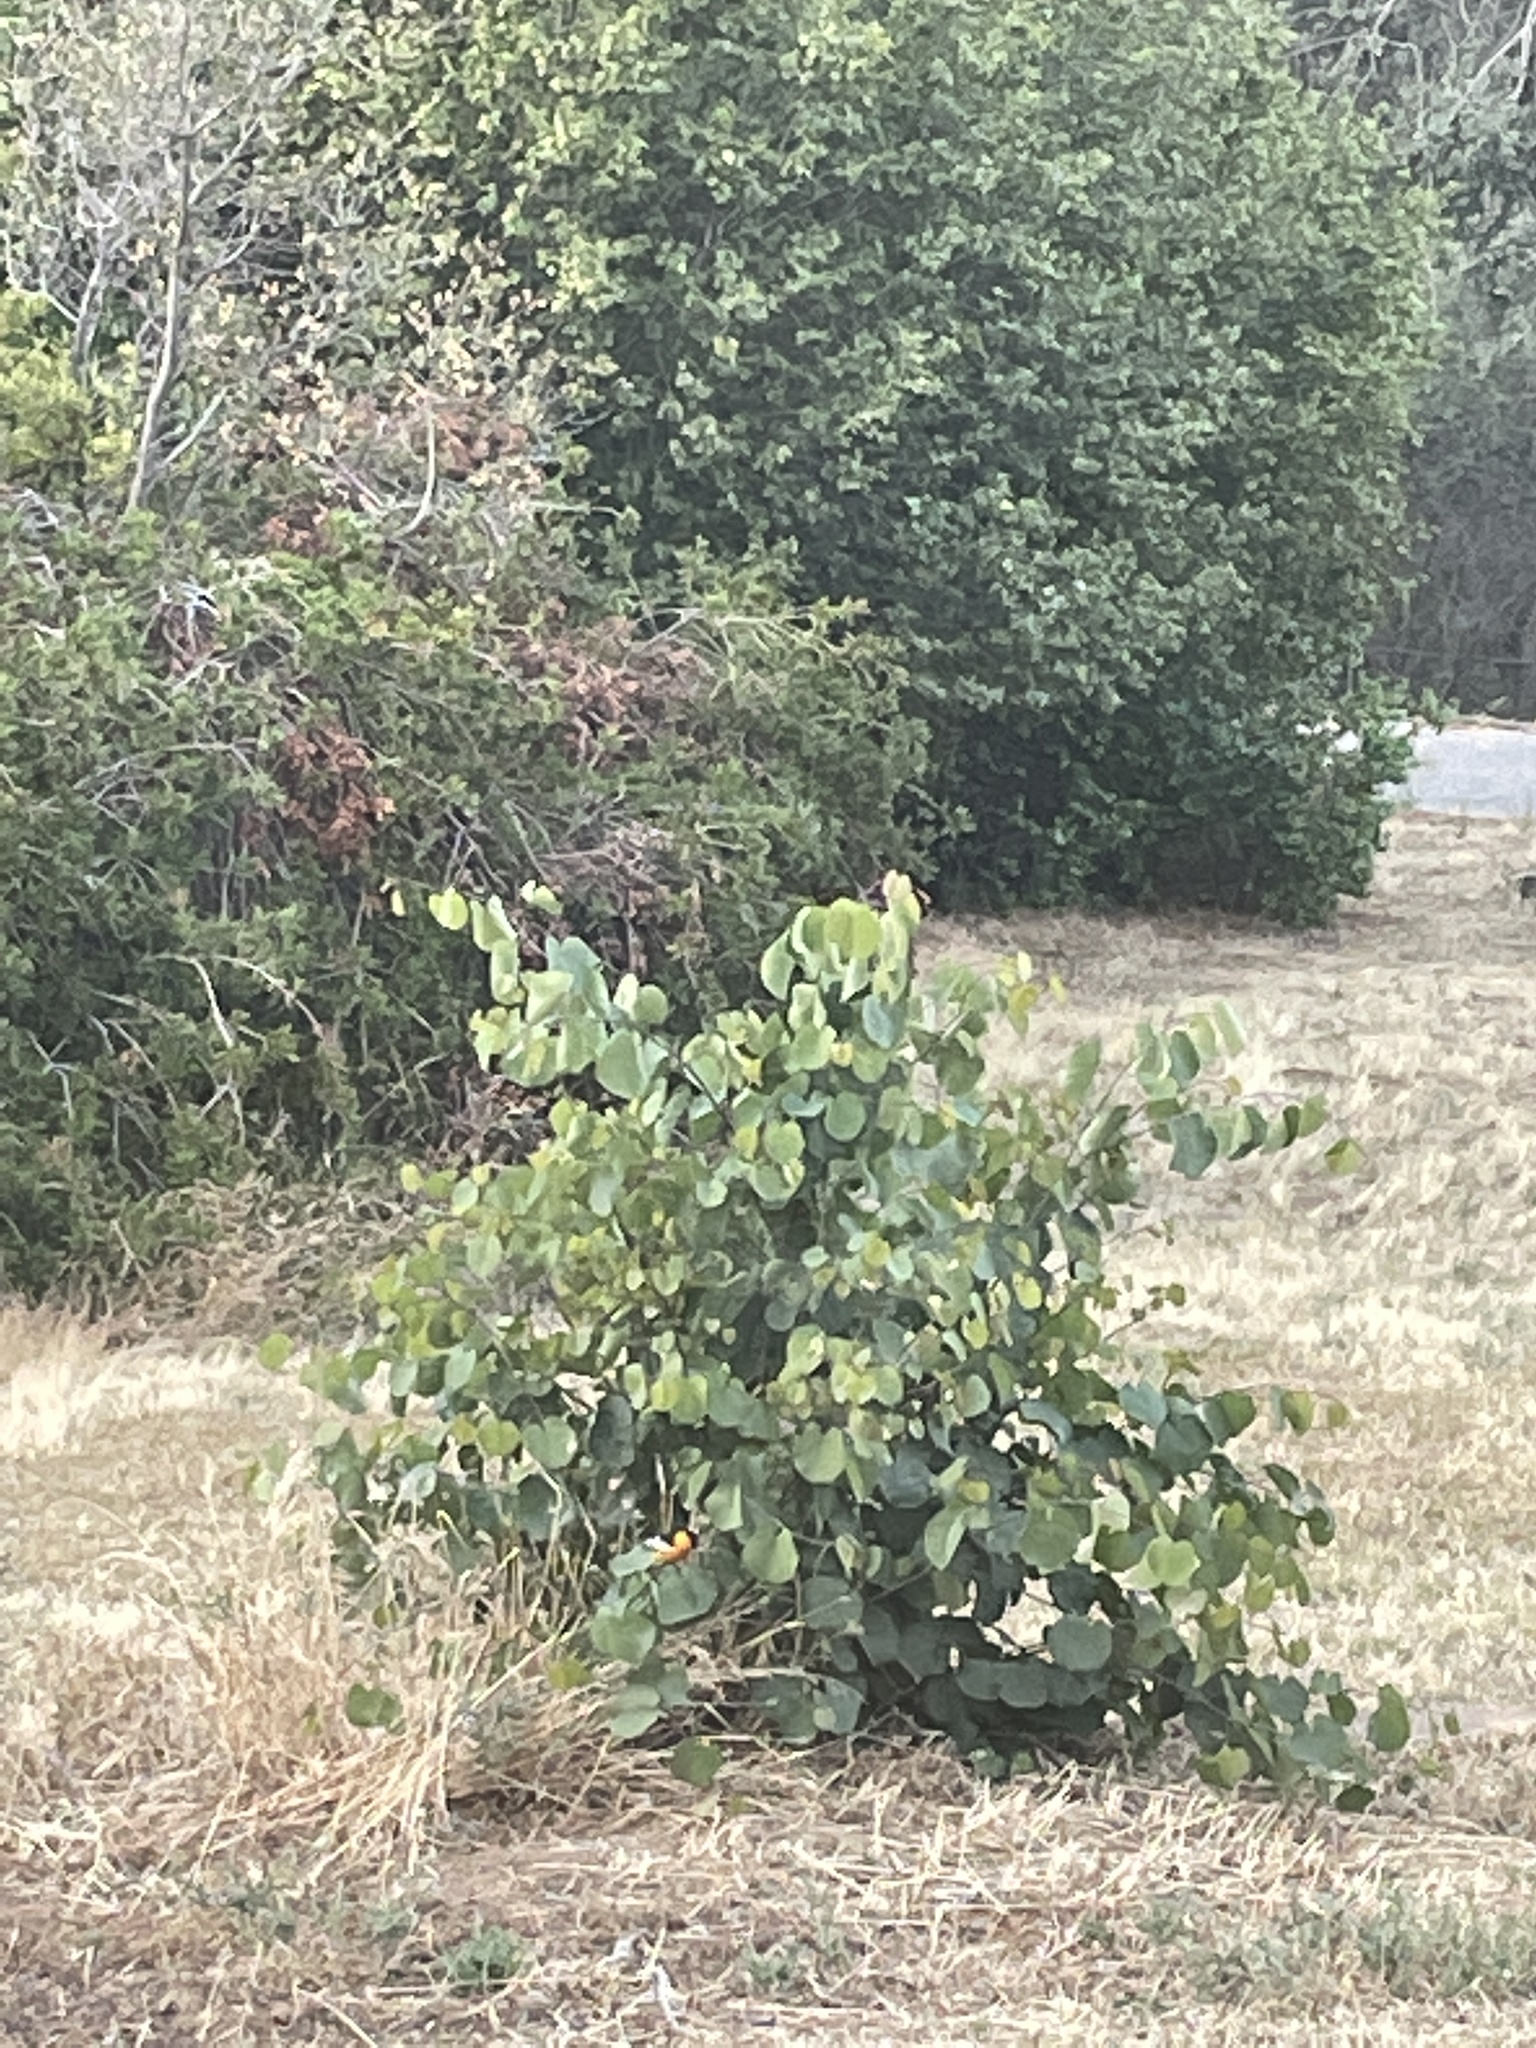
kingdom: Animalia
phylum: Chordata
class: Aves
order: Passeriformes
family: Icteridae
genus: Icterus
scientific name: Icterus bullockii
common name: Bullock's oriole
